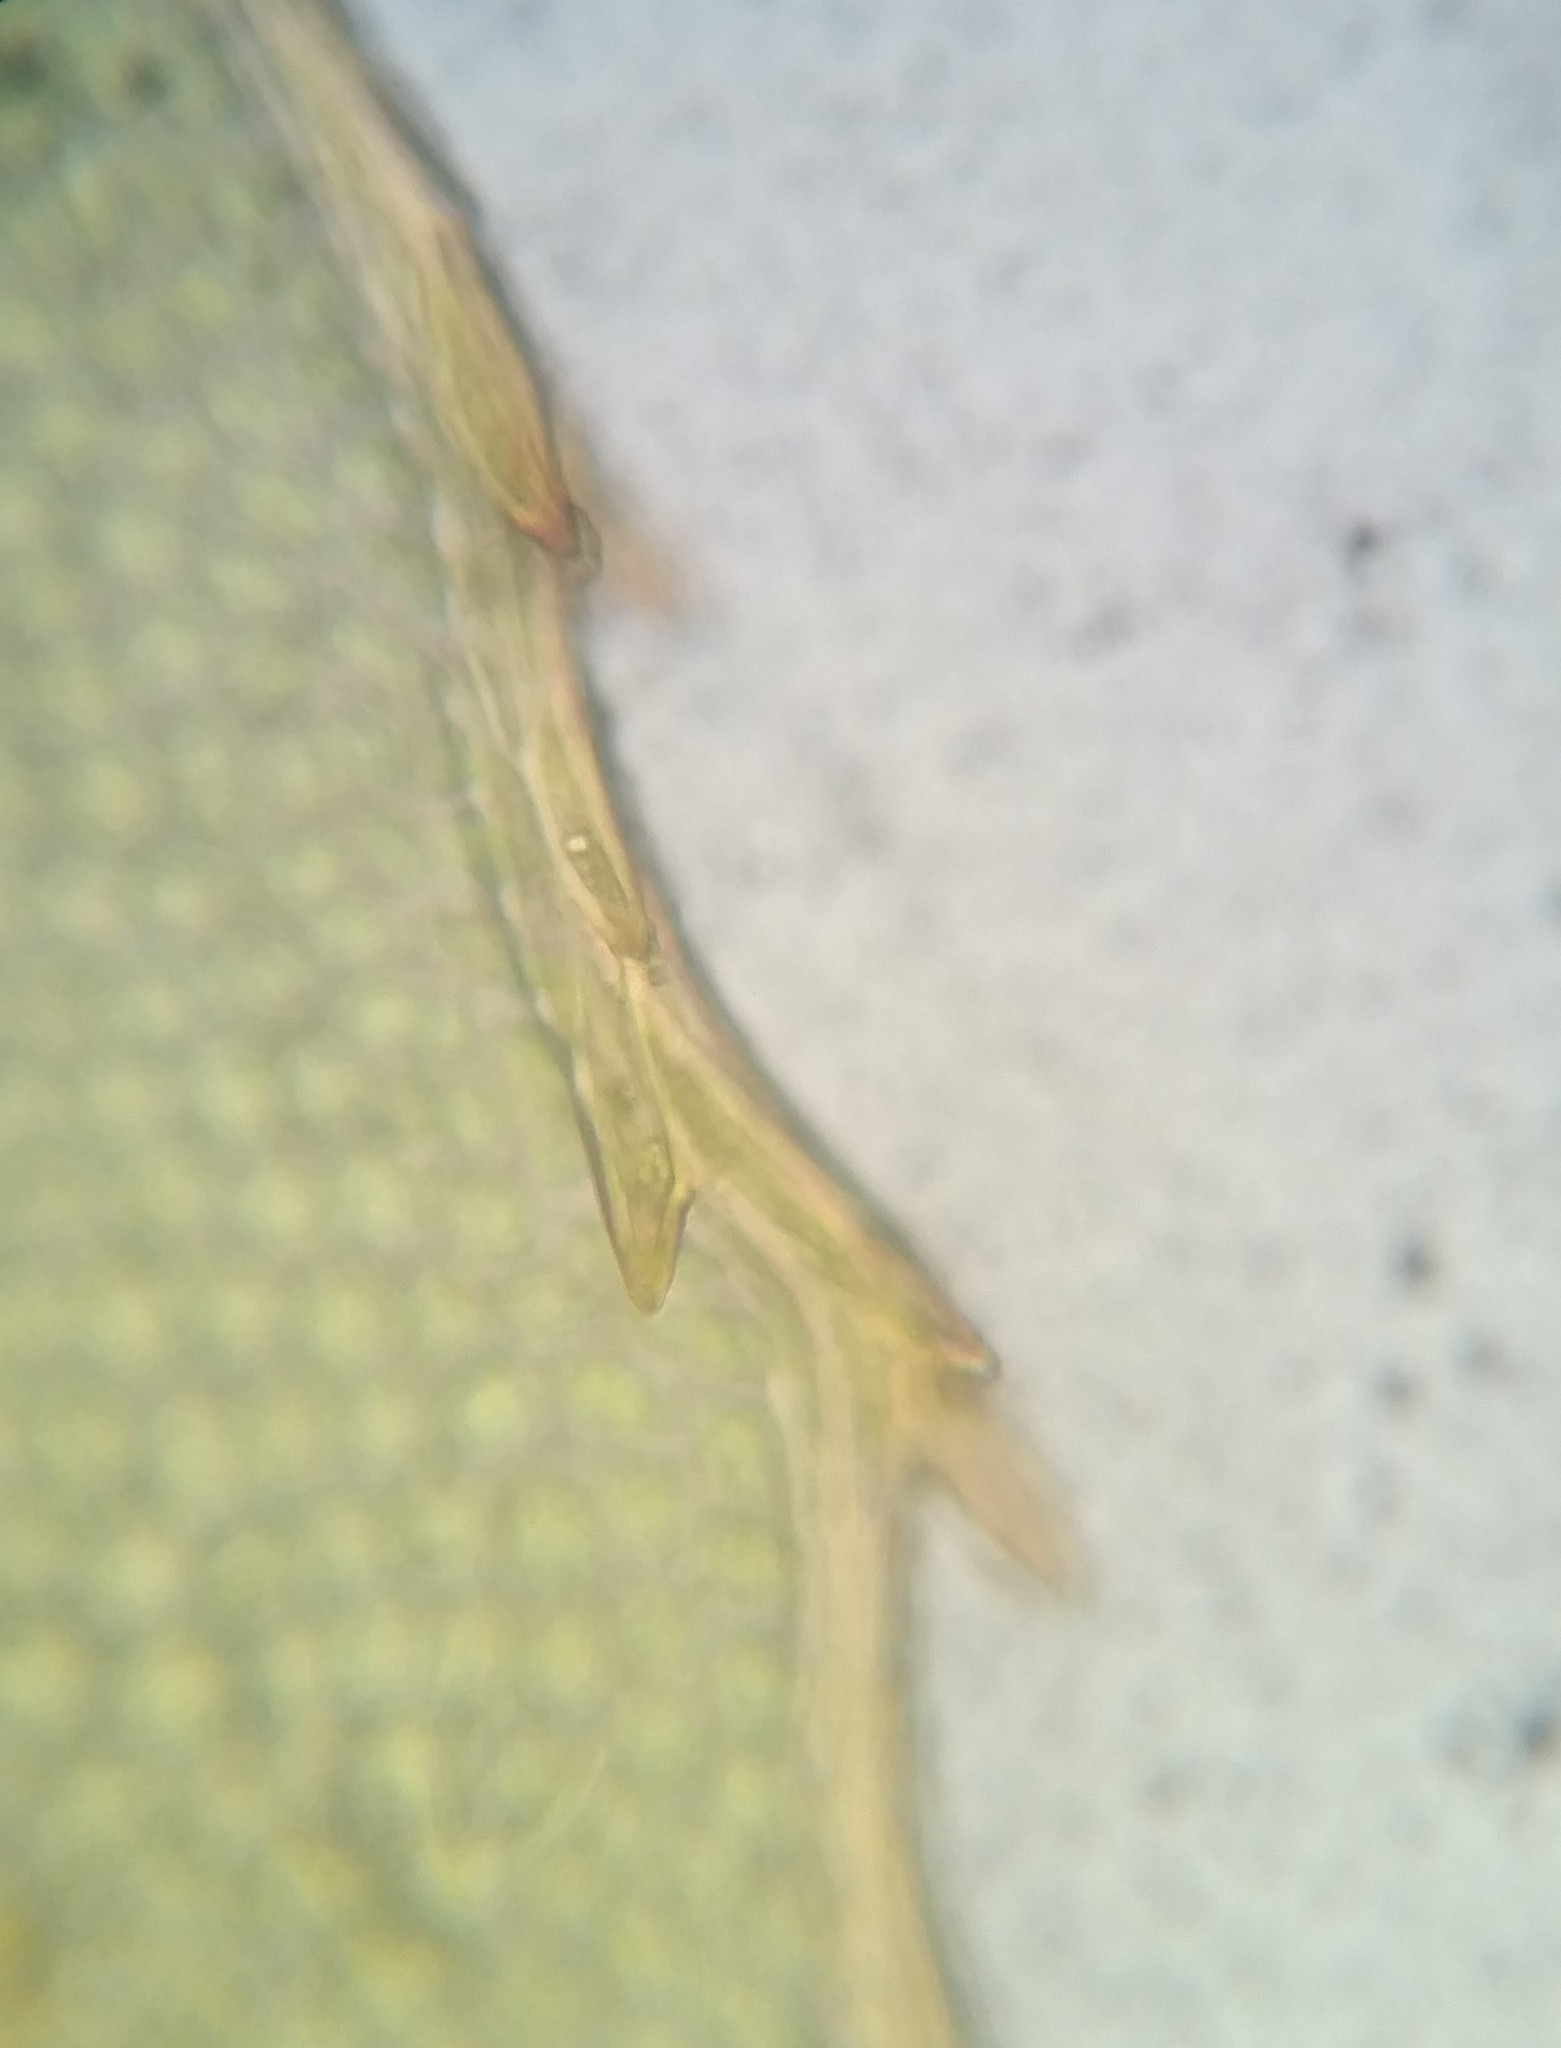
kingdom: Plantae
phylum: Bryophyta
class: Bryopsida
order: Bryales
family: Mniaceae
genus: Mnium
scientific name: Mnium hornum
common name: Swan's-neck leafy moss
